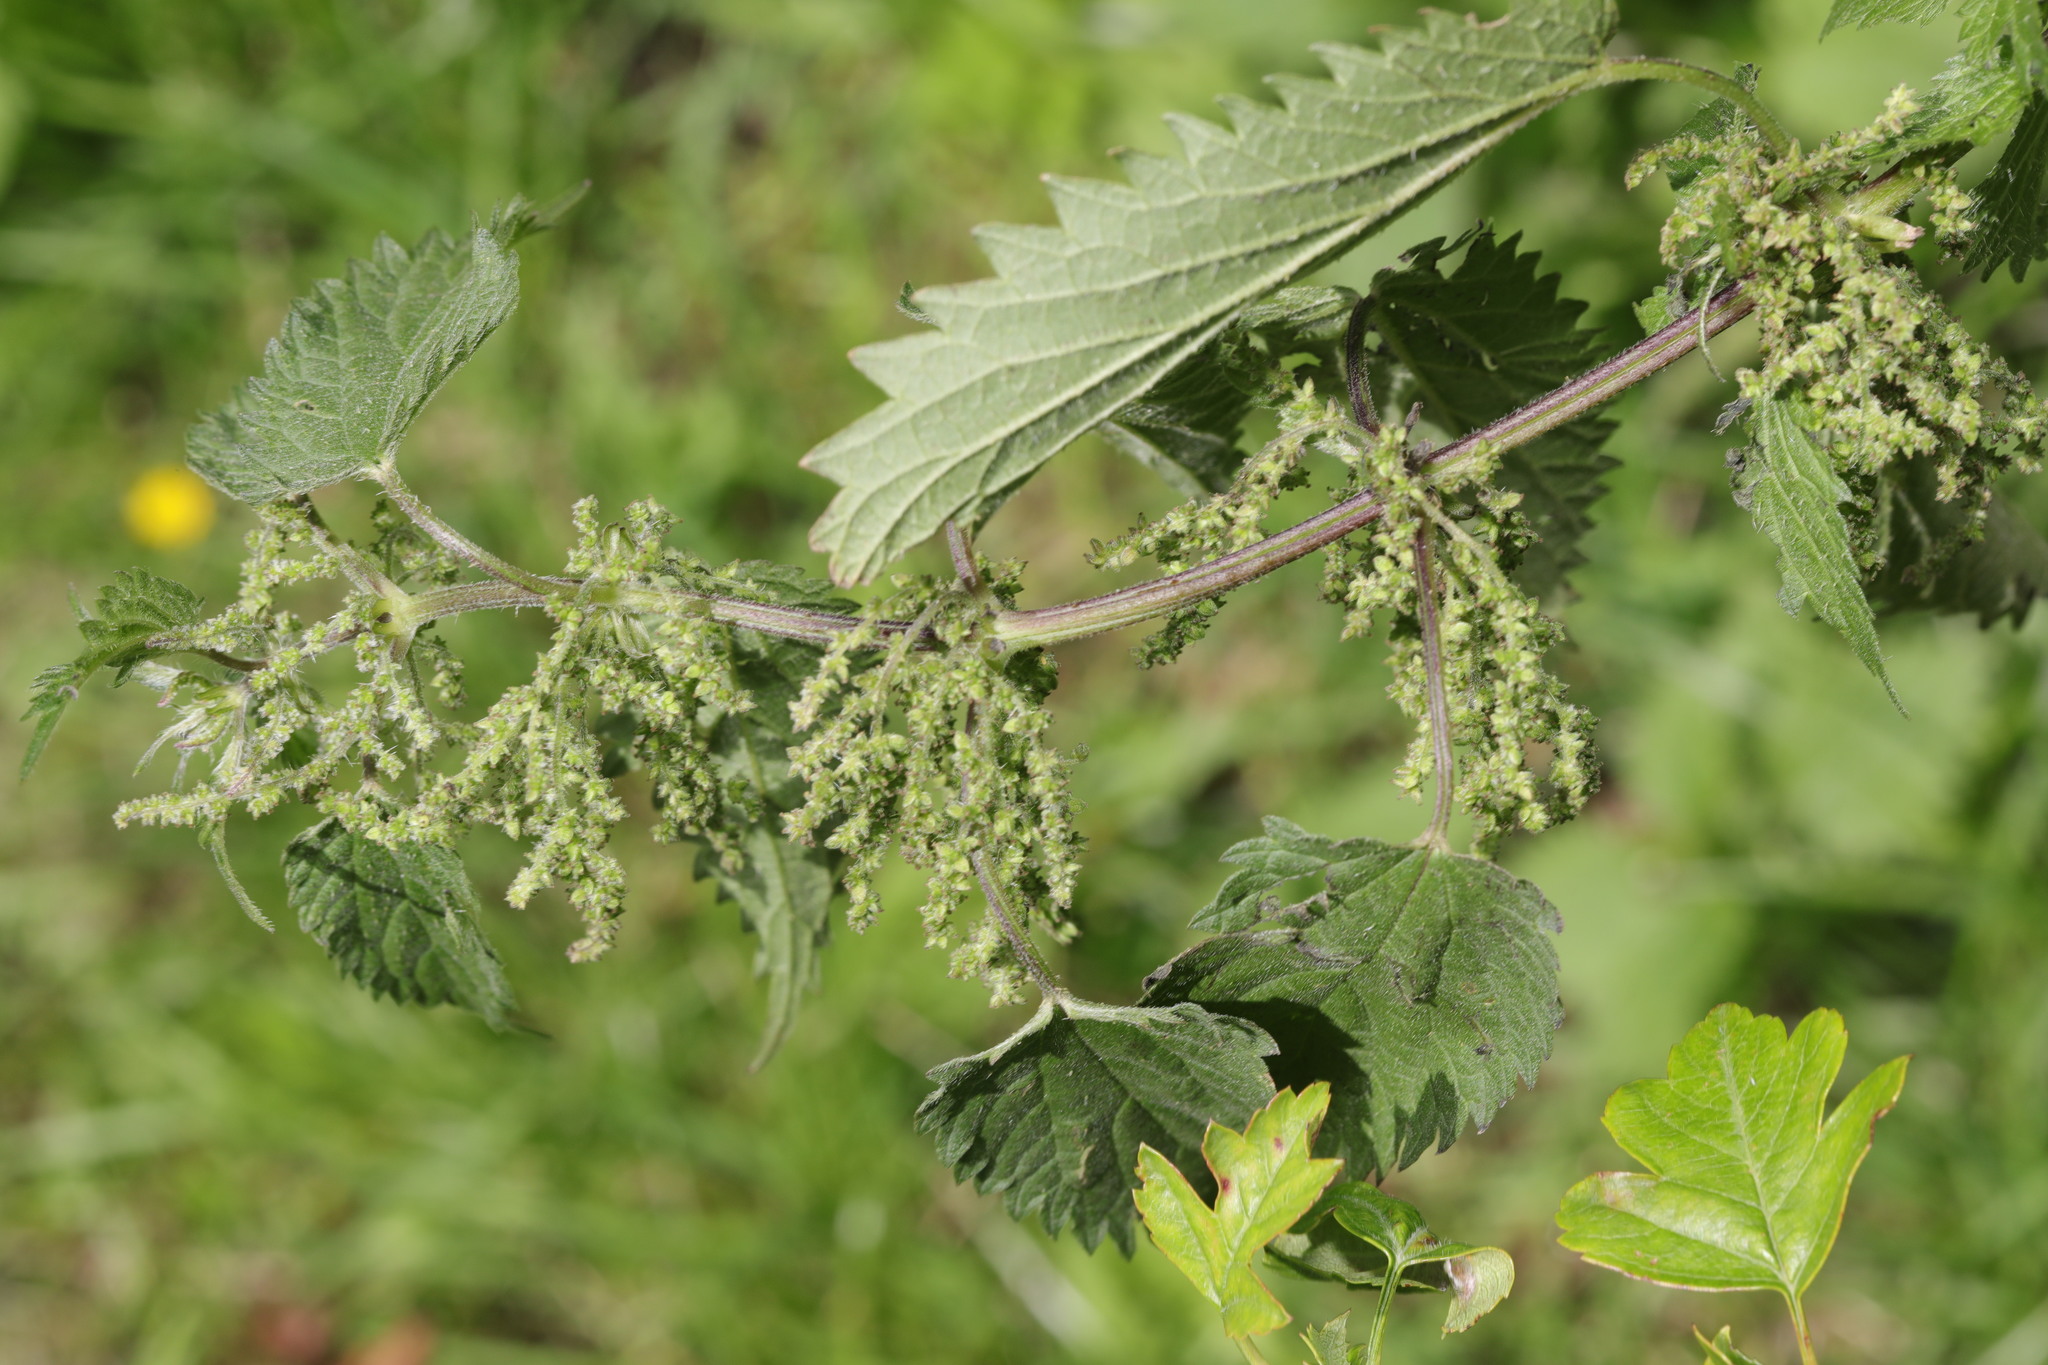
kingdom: Plantae
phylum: Tracheophyta
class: Magnoliopsida
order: Rosales
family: Urticaceae
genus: Urtica
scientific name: Urtica dioica
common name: Common nettle
